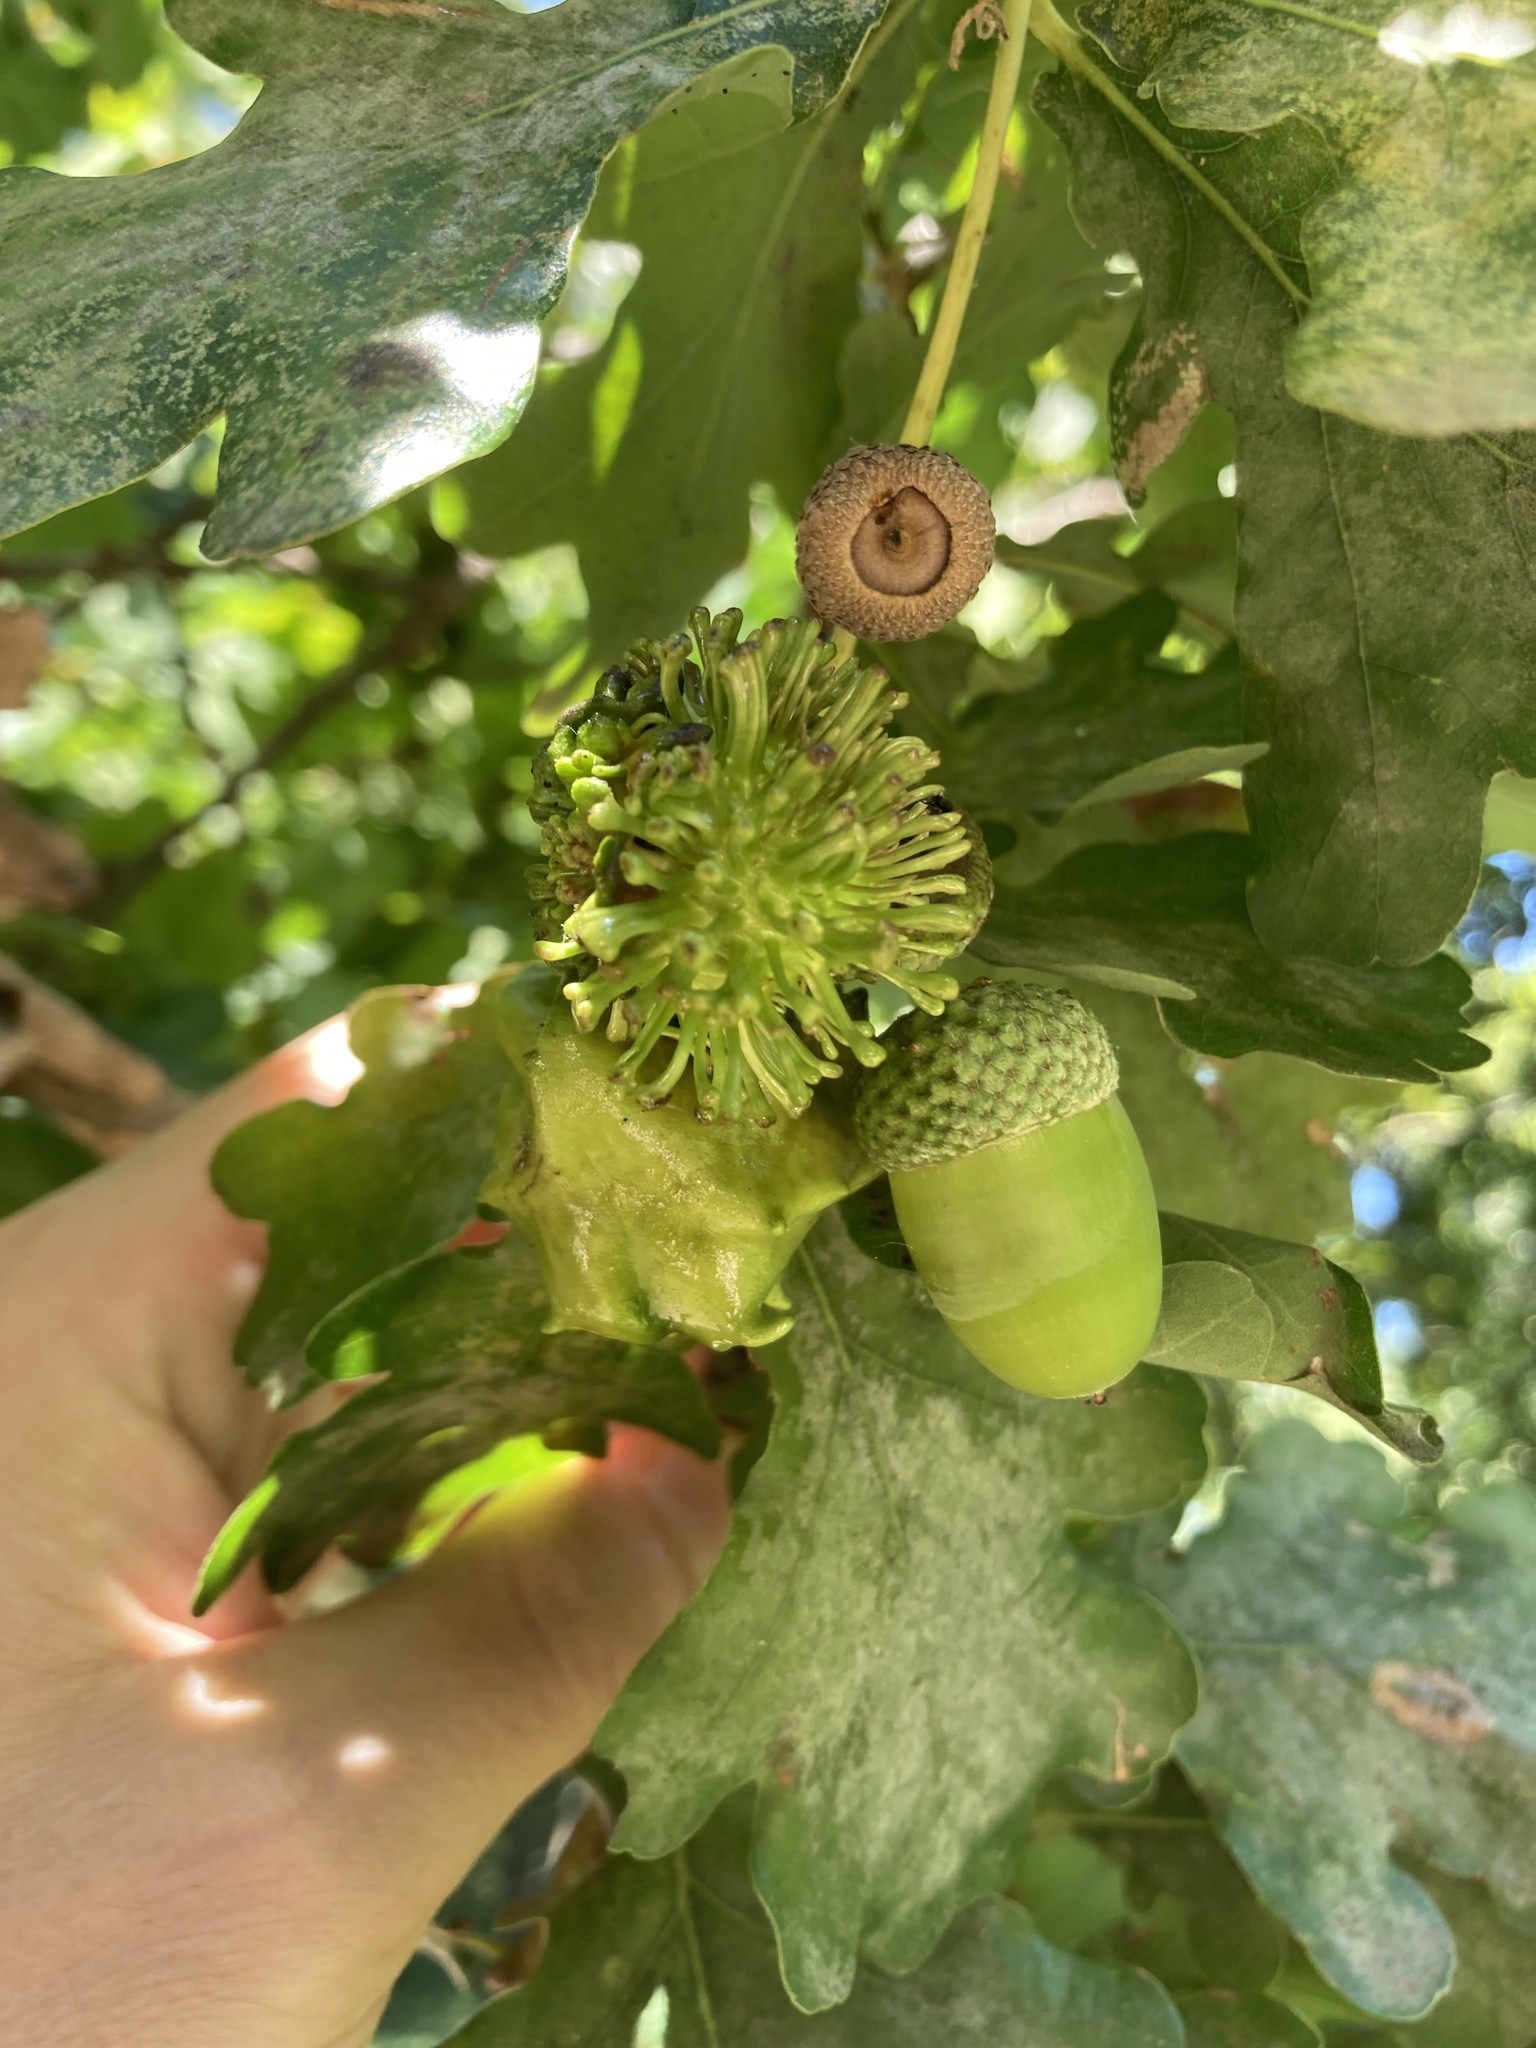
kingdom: Animalia
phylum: Arthropoda
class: Insecta
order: Hymenoptera
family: Cynipidae
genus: Andricus
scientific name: Andricus grossulariae
